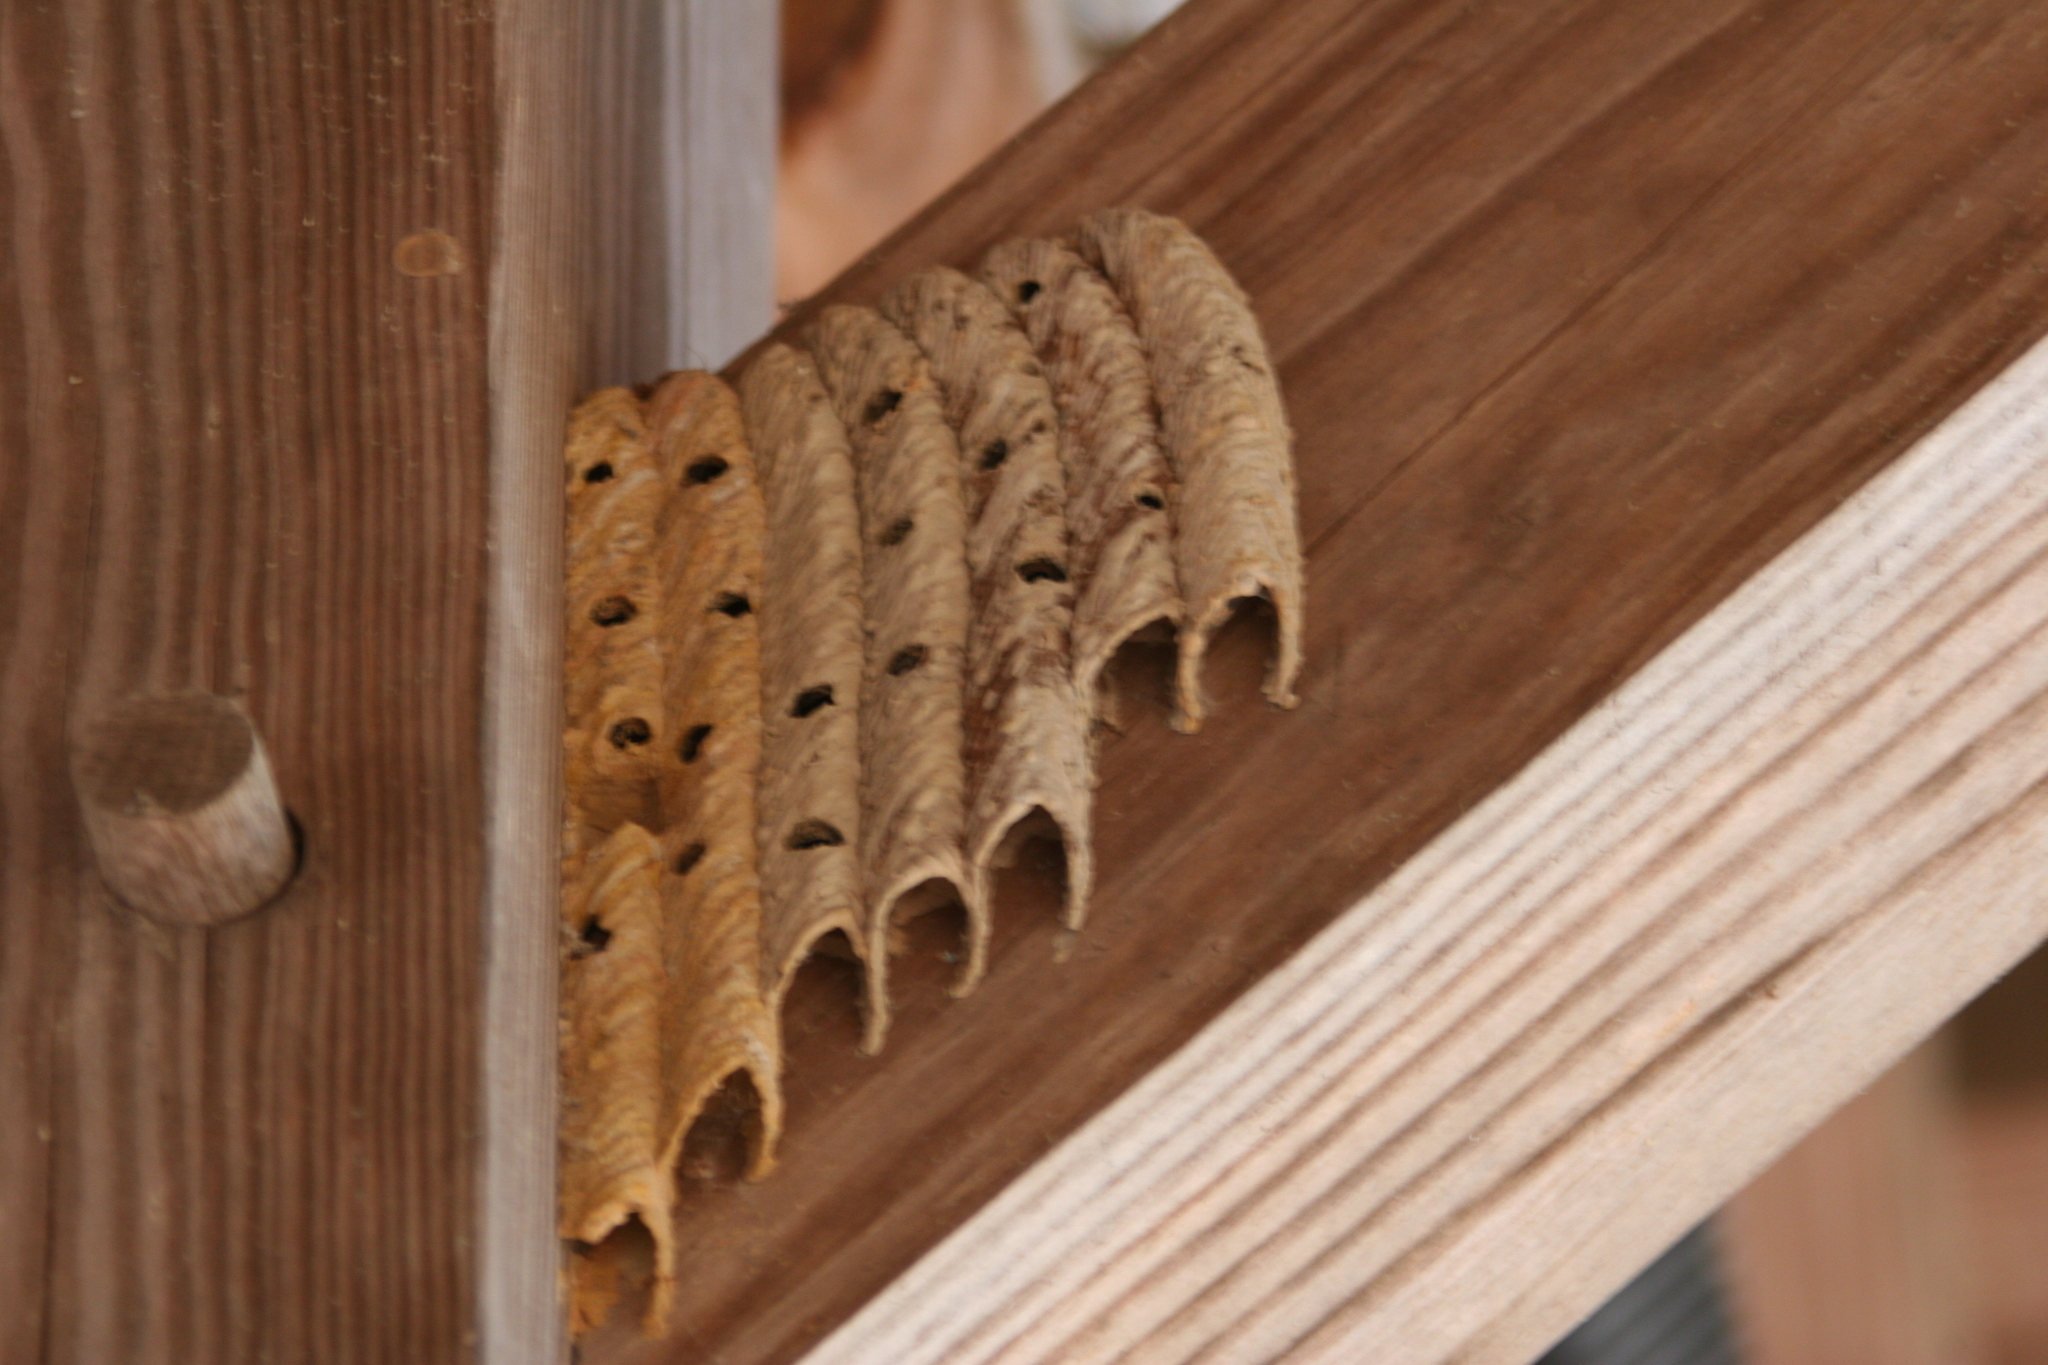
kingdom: Animalia
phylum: Arthropoda
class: Insecta
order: Hymenoptera
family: Crabronidae
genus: Trypoxylon
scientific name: Trypoxylon politum
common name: Organ-pipe mud-dauber wasp
